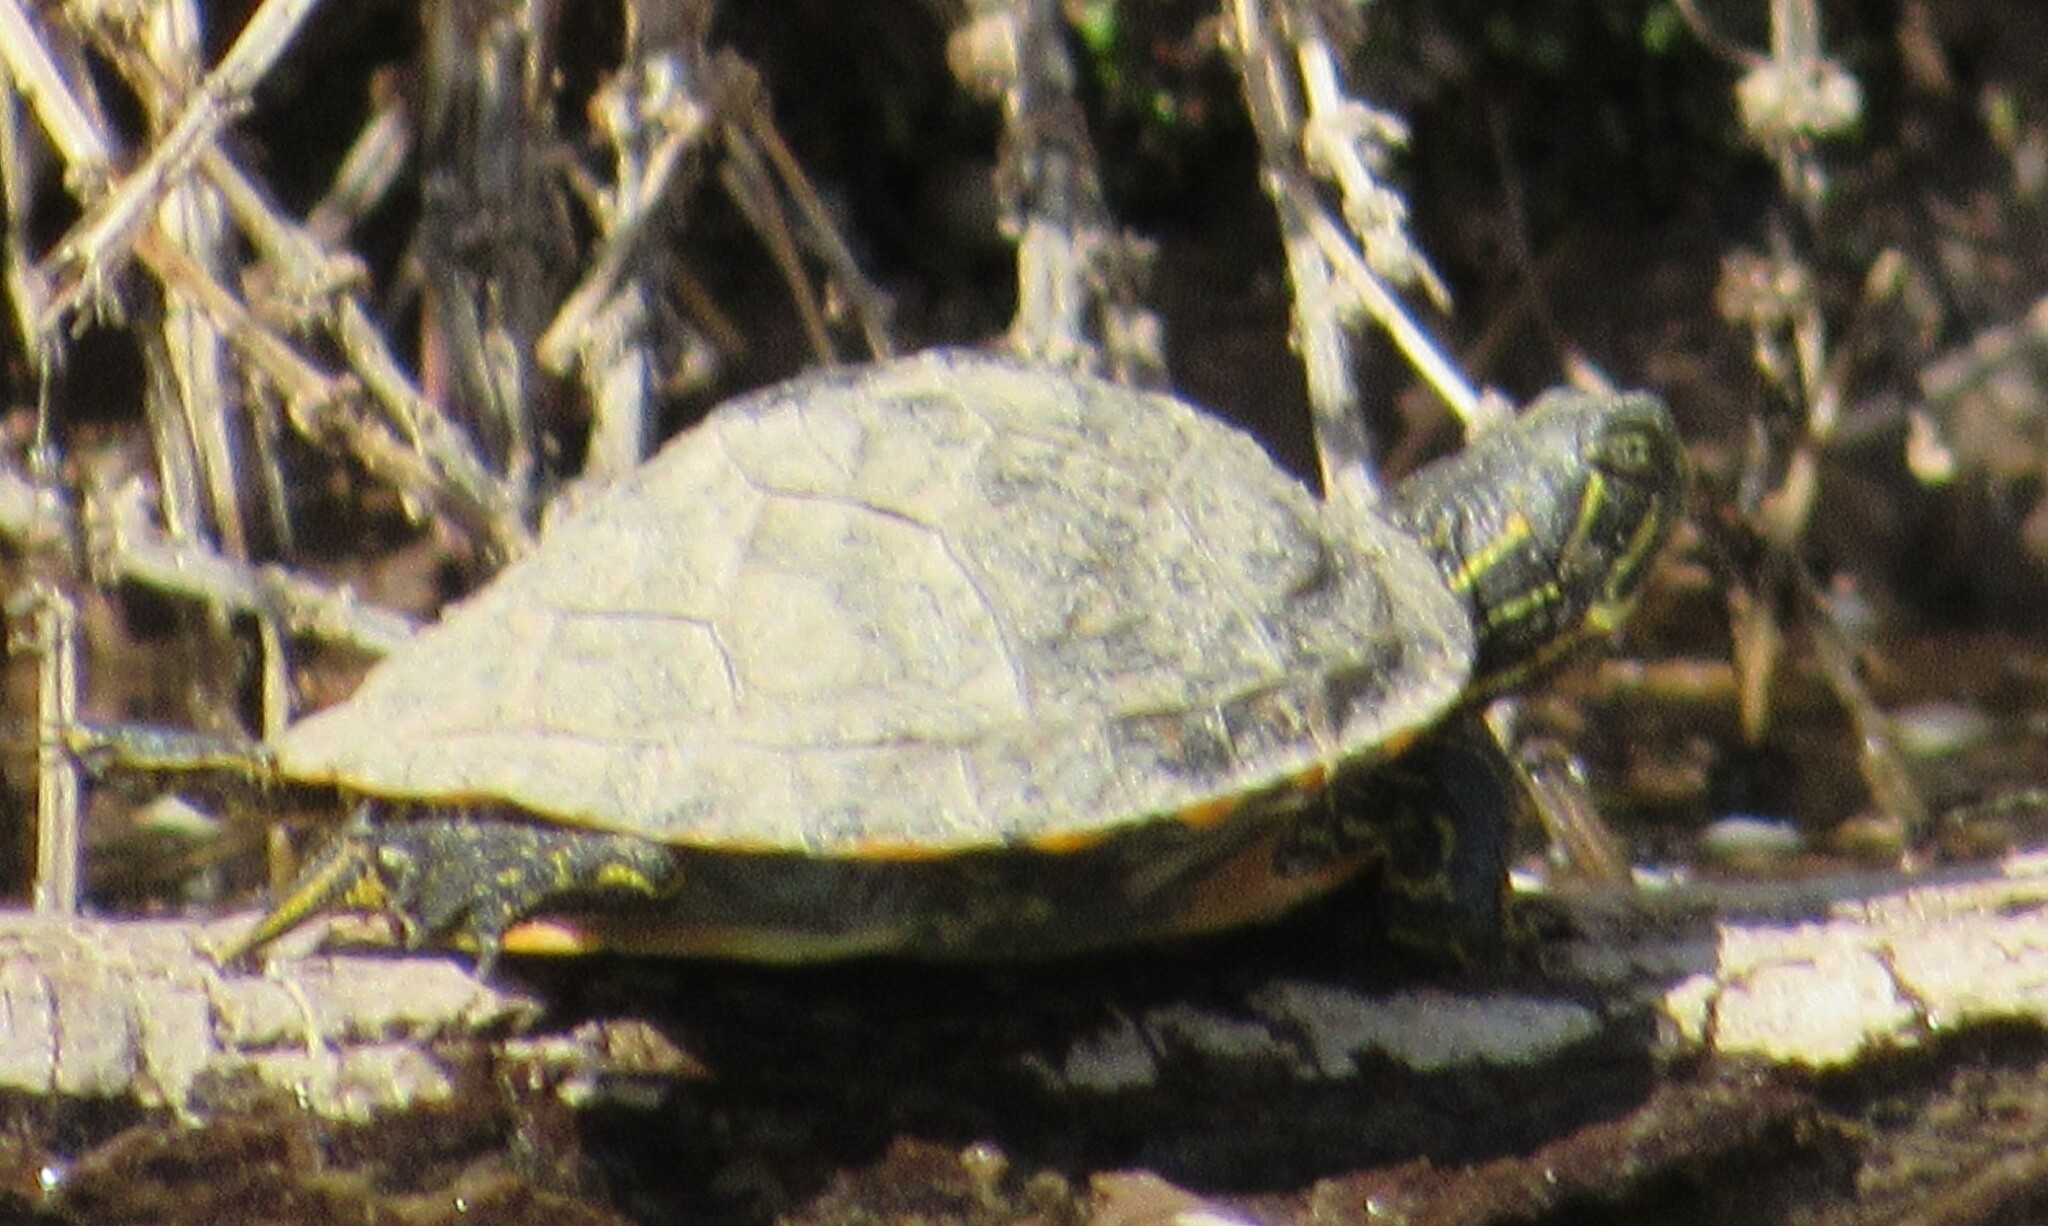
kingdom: Animalia
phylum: Chordata
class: Testudines
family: Emydidae
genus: Pseudemys
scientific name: Pseudemys concinna
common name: Eastern river cooter
